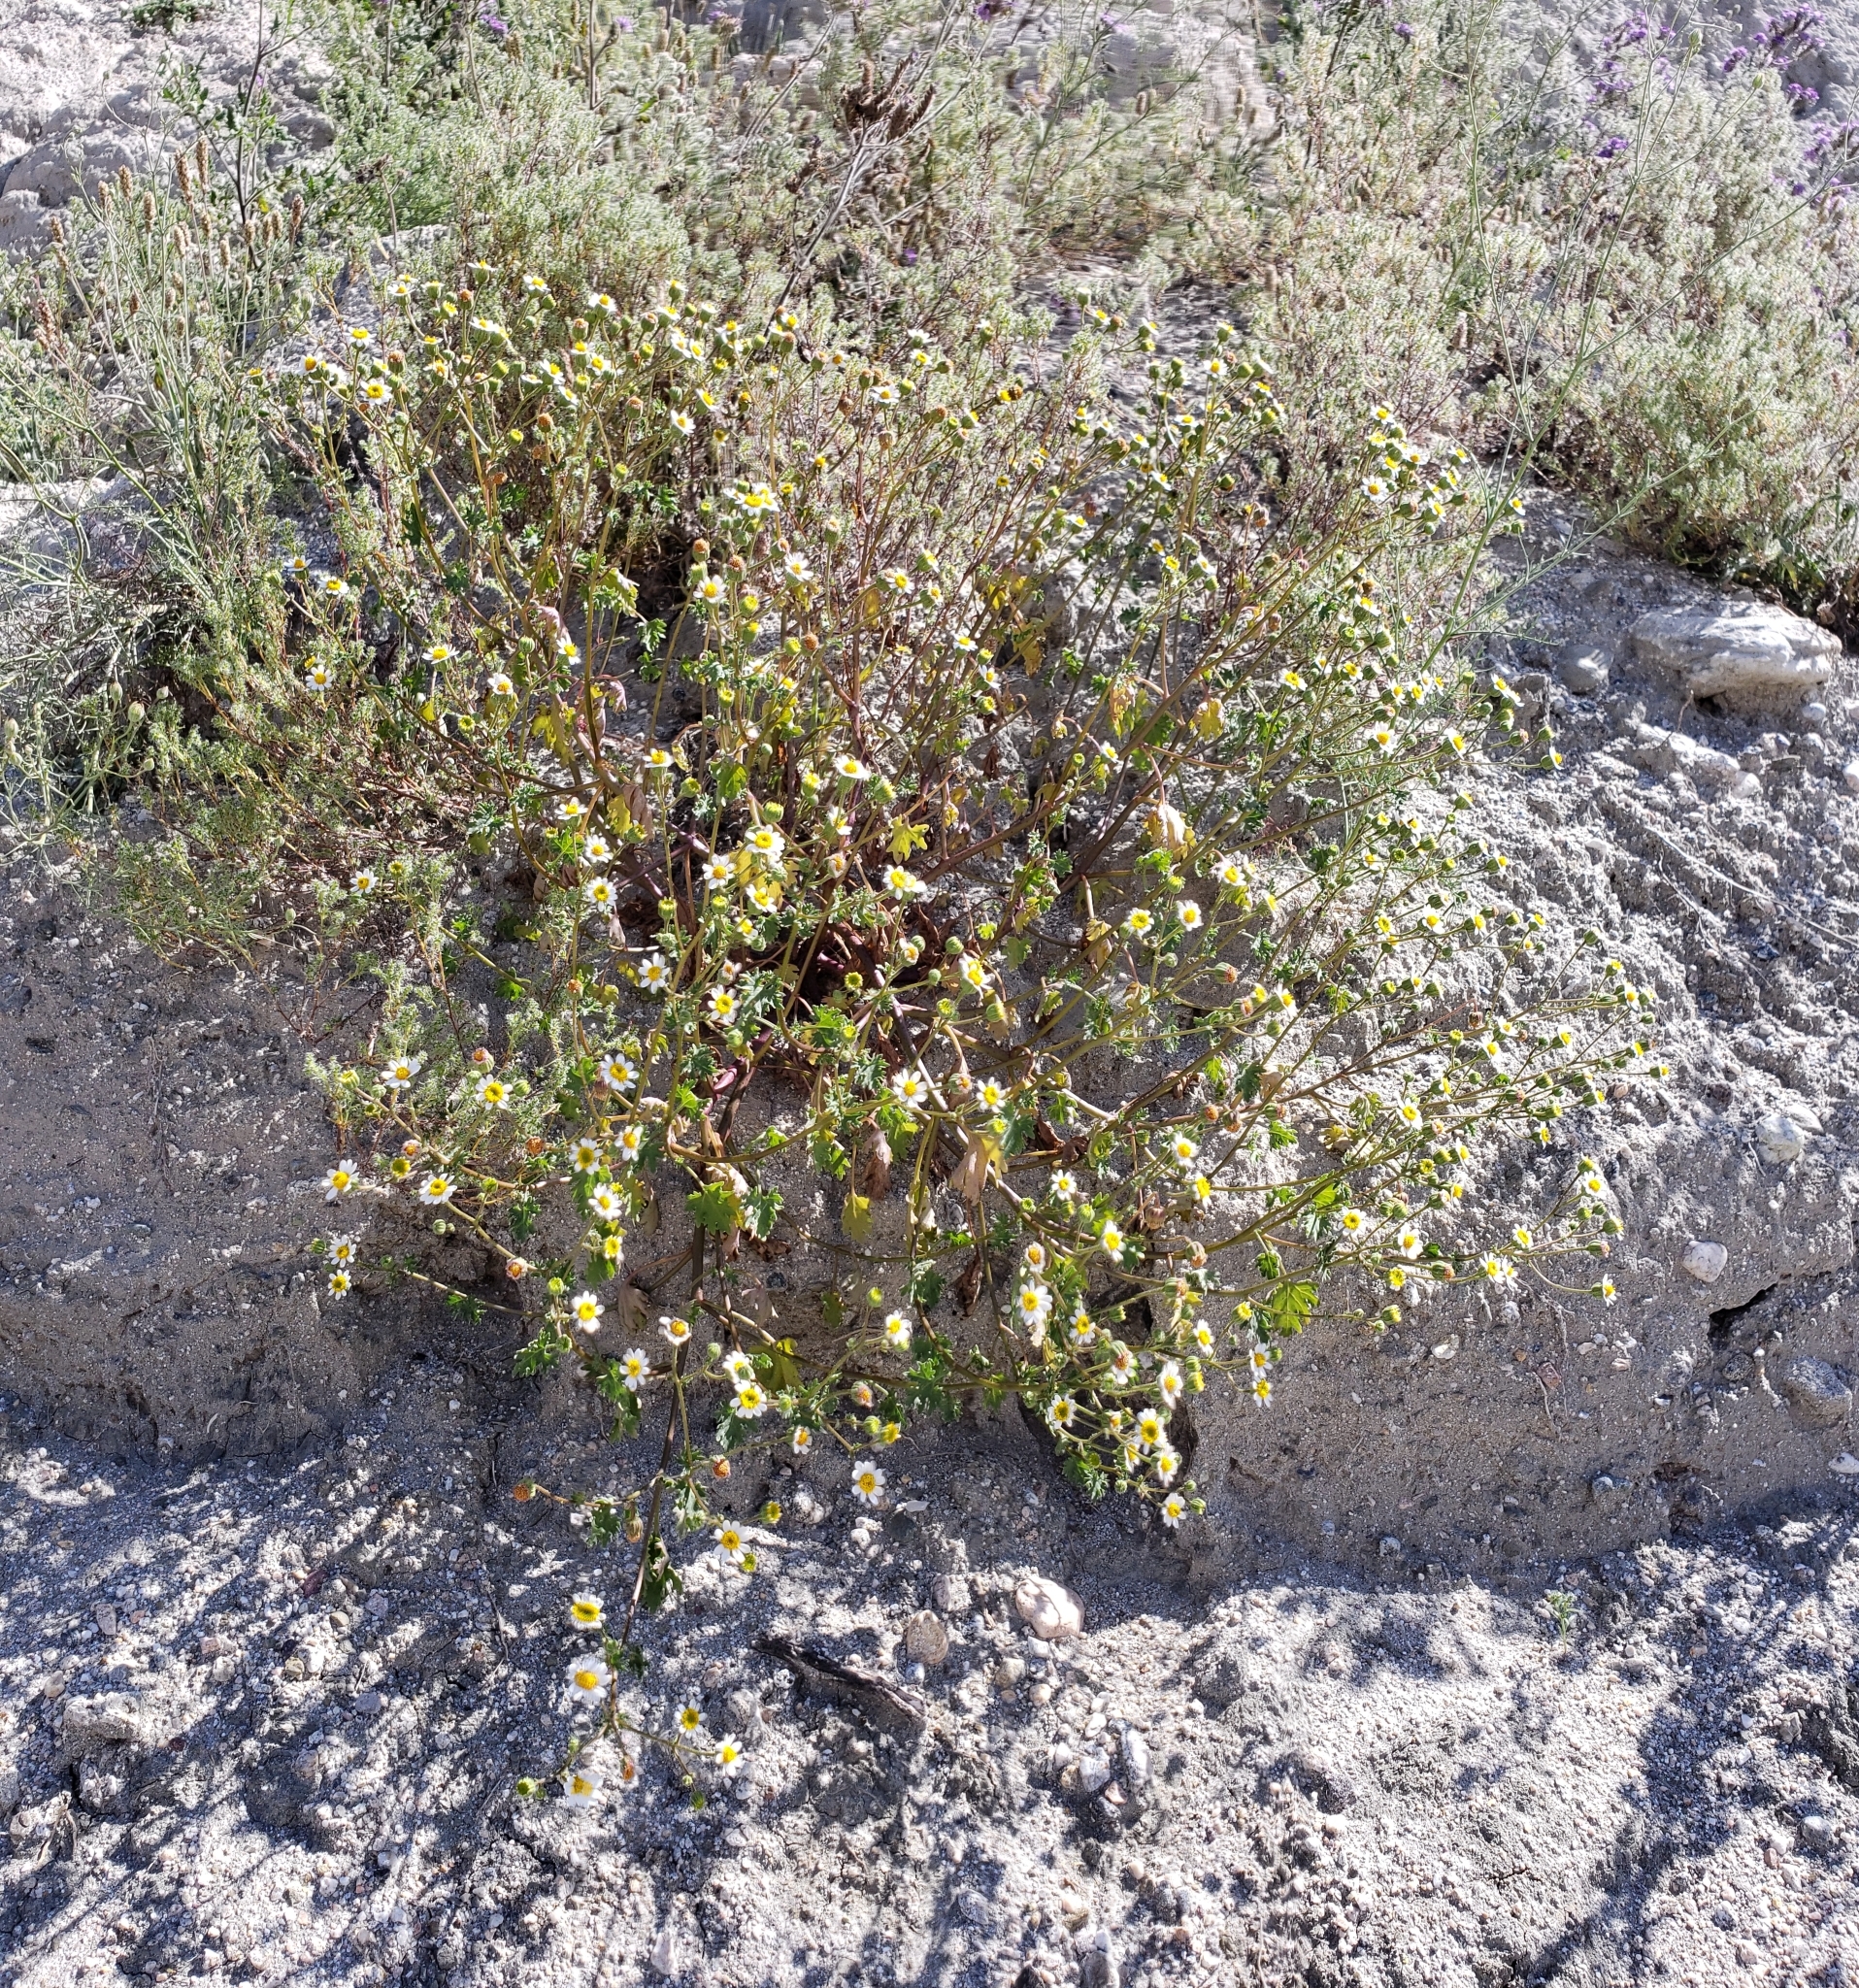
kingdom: Plantae
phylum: Tracheophyta
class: Magnoliopsida
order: Asterales
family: Asteraceae
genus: Laphamia
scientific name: Laphamia emoryi
